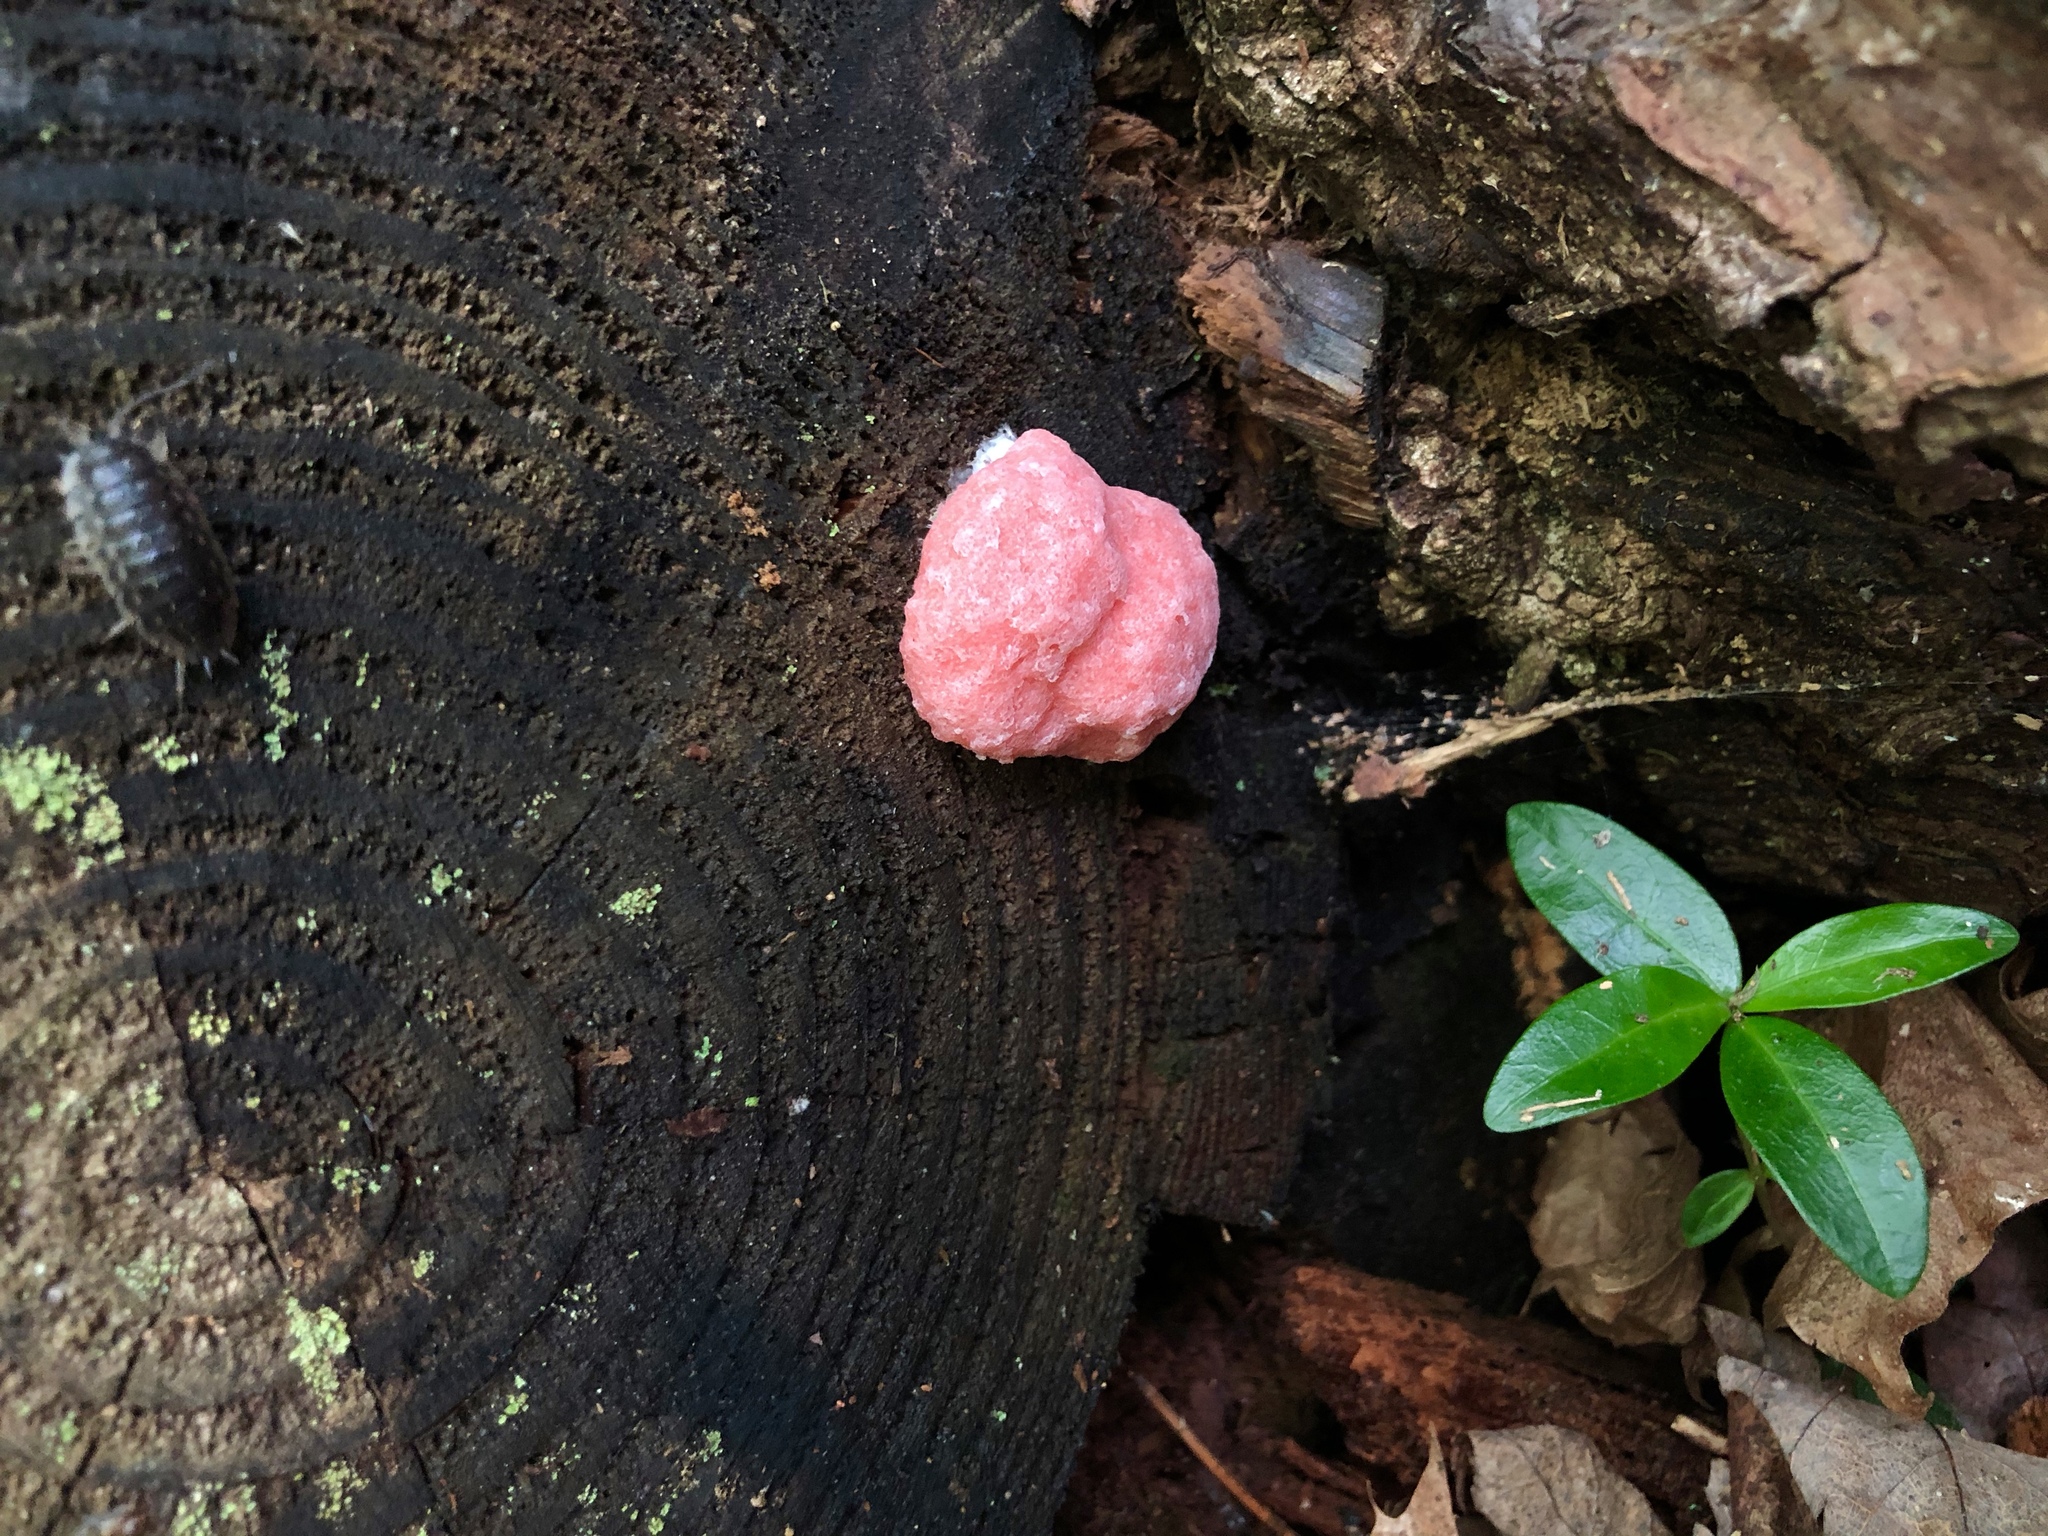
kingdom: Protozoa
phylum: Mycetozoa
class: Myxomycetes
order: Cribrariales
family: Tubiferaceae
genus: Tubifera
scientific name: Tubifera ferruginosa
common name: Red raspberry slime mold
